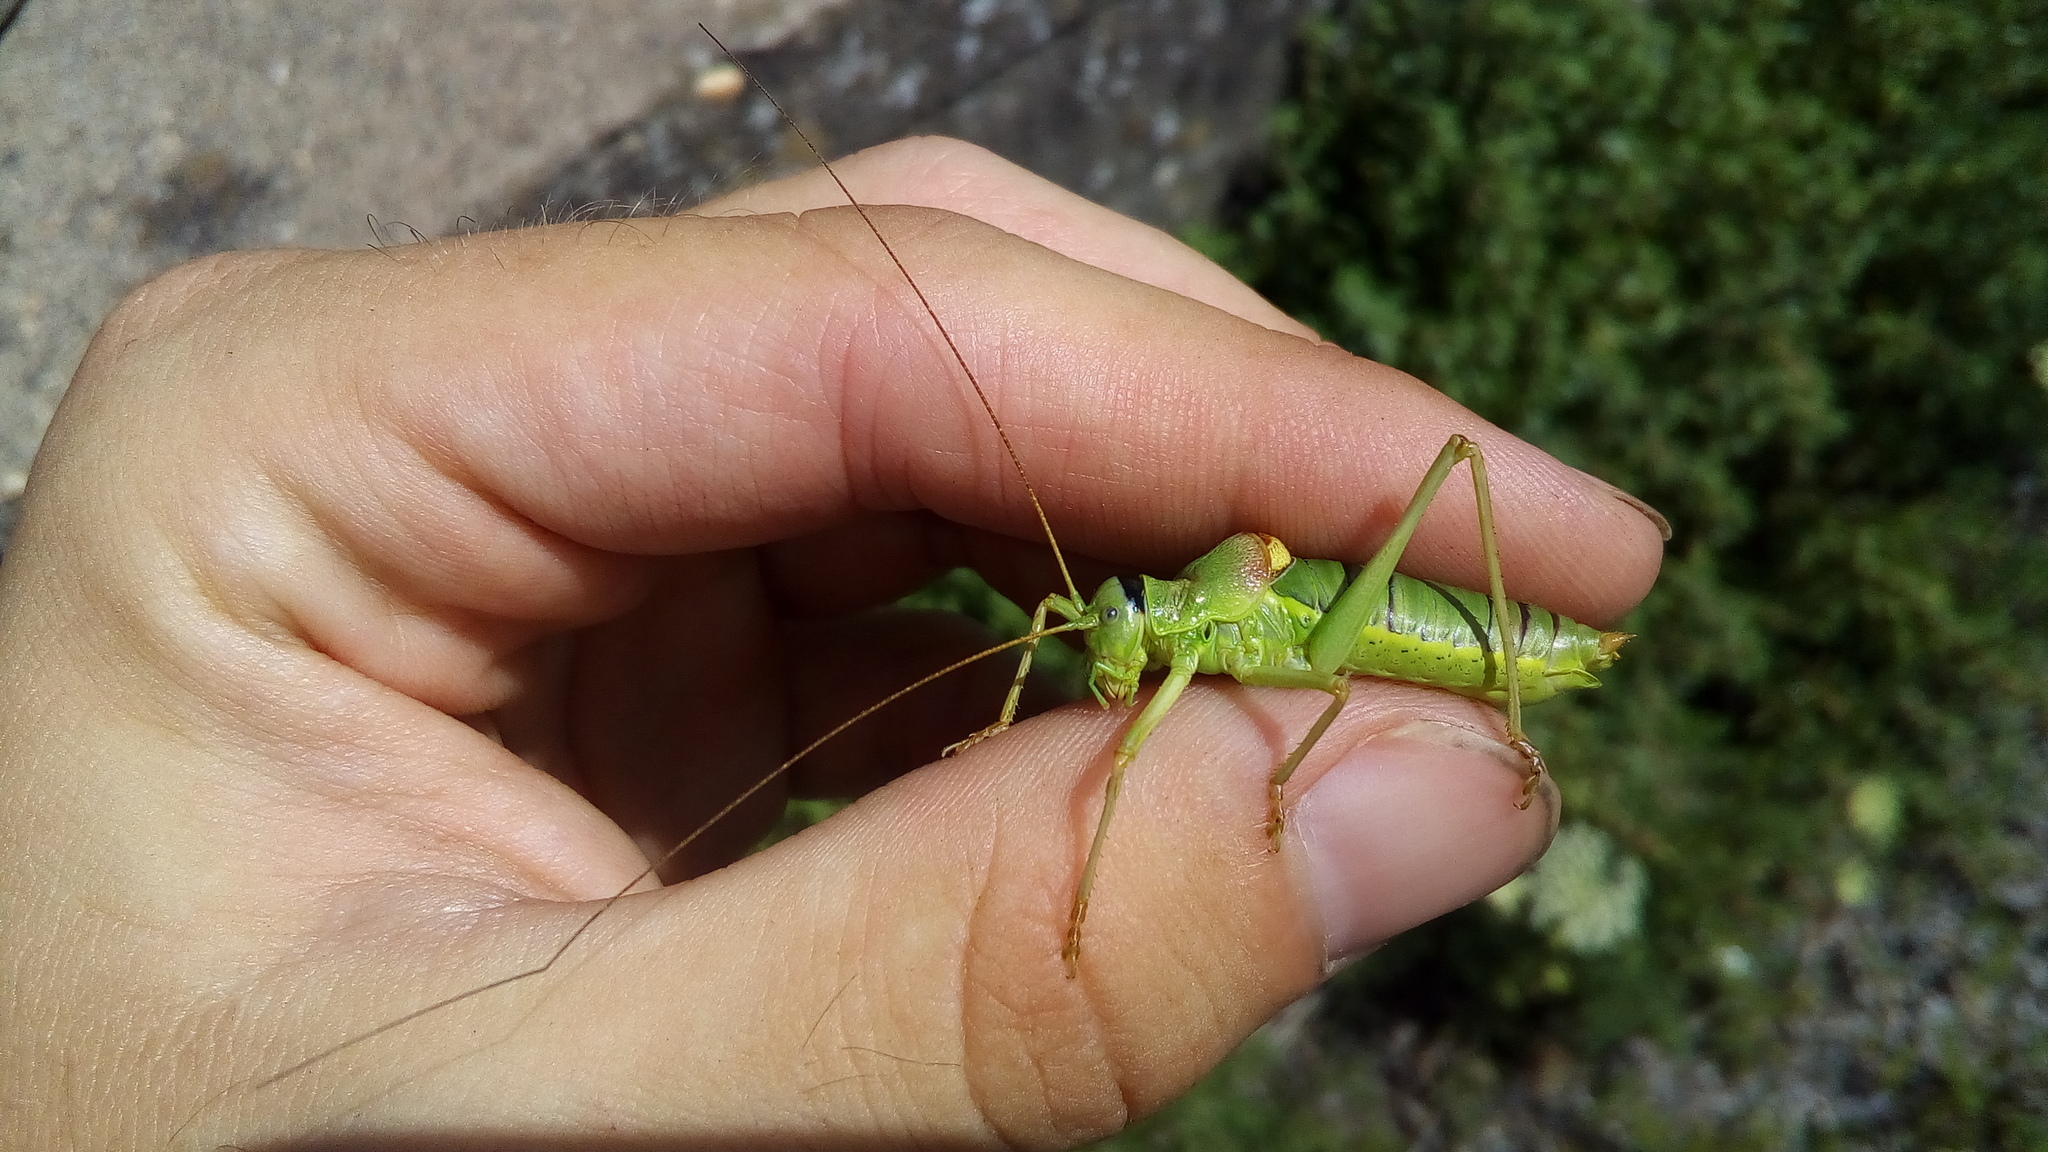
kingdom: Animalia
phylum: Arthropoda
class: Insecta
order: Orthoptera
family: Tettigoniidae
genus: Ephippiger
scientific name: Ephippiger diurnus
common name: Western saddle bush-cricket
